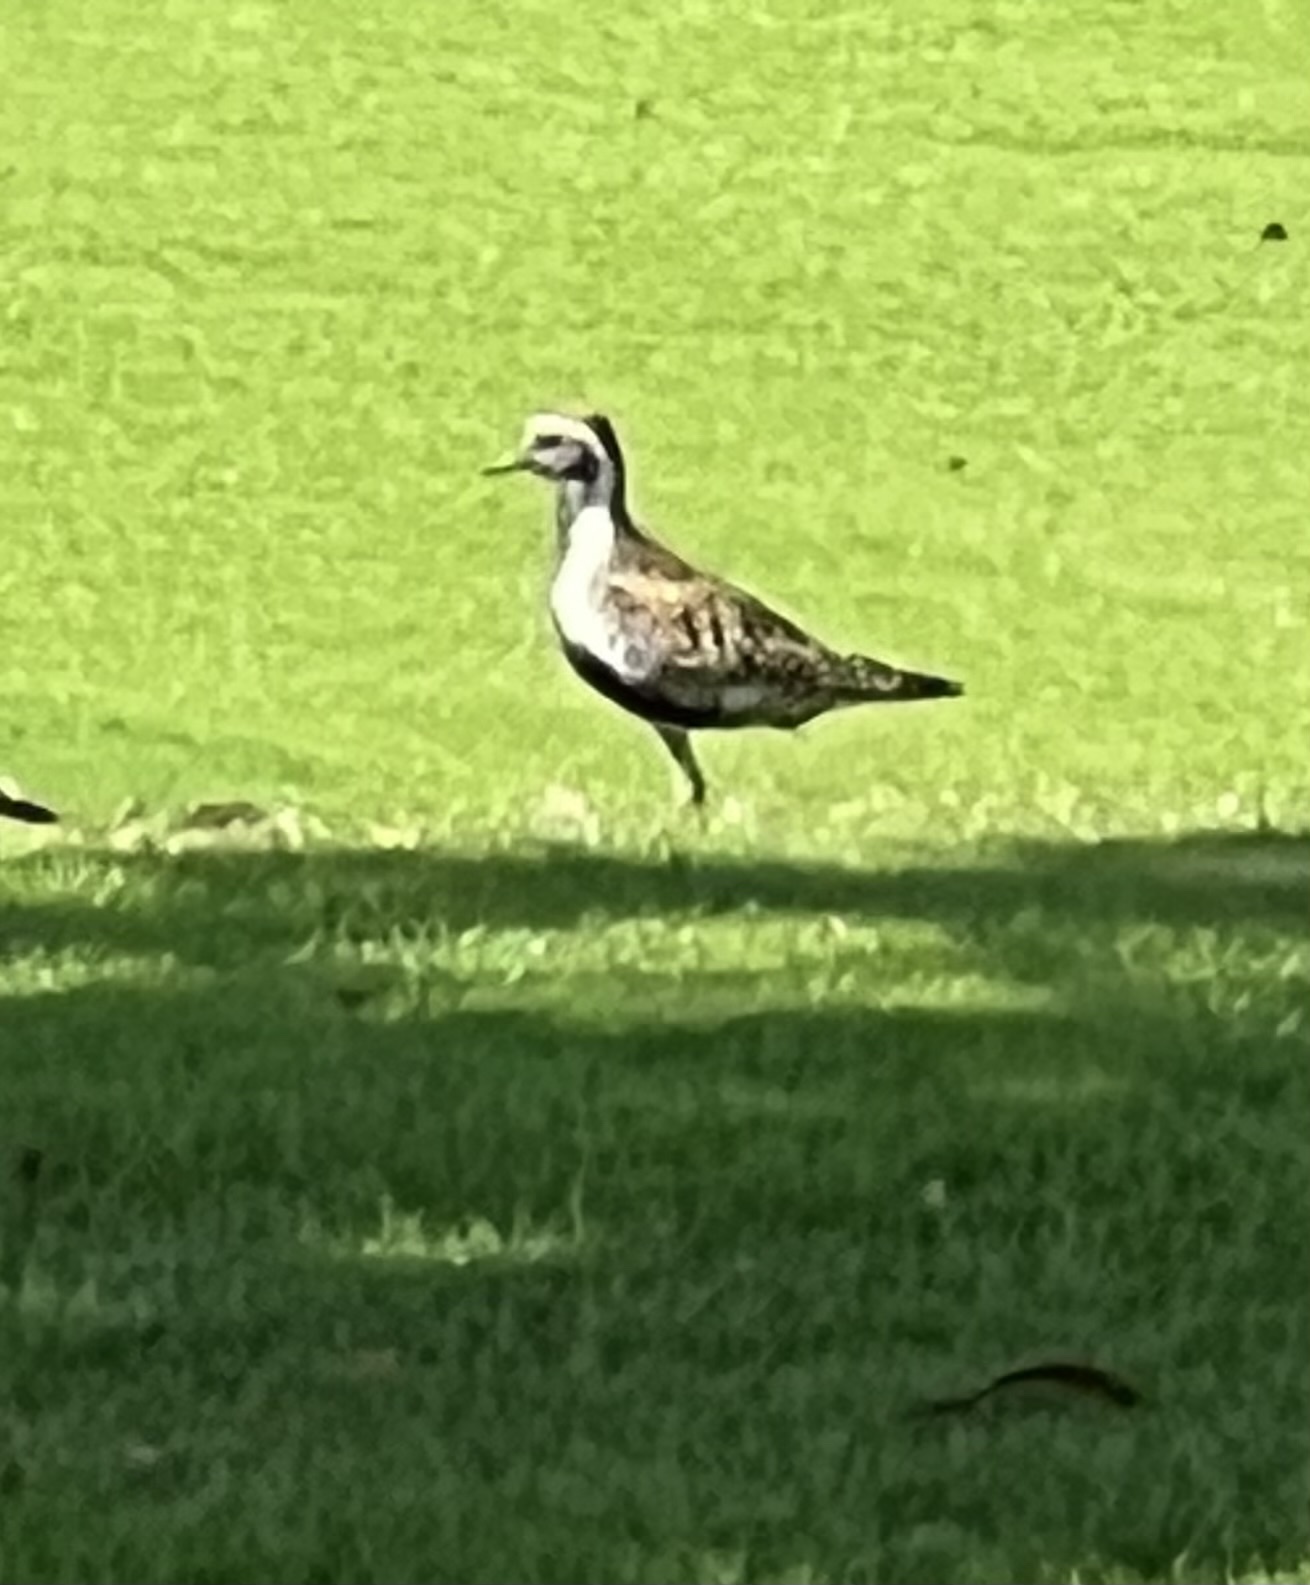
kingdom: Animalia
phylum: Chordata
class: Aves
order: Charadriiformes
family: Charadriidae
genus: Pluvialis
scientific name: Pluvialis fulva
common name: Pacific golden plover
